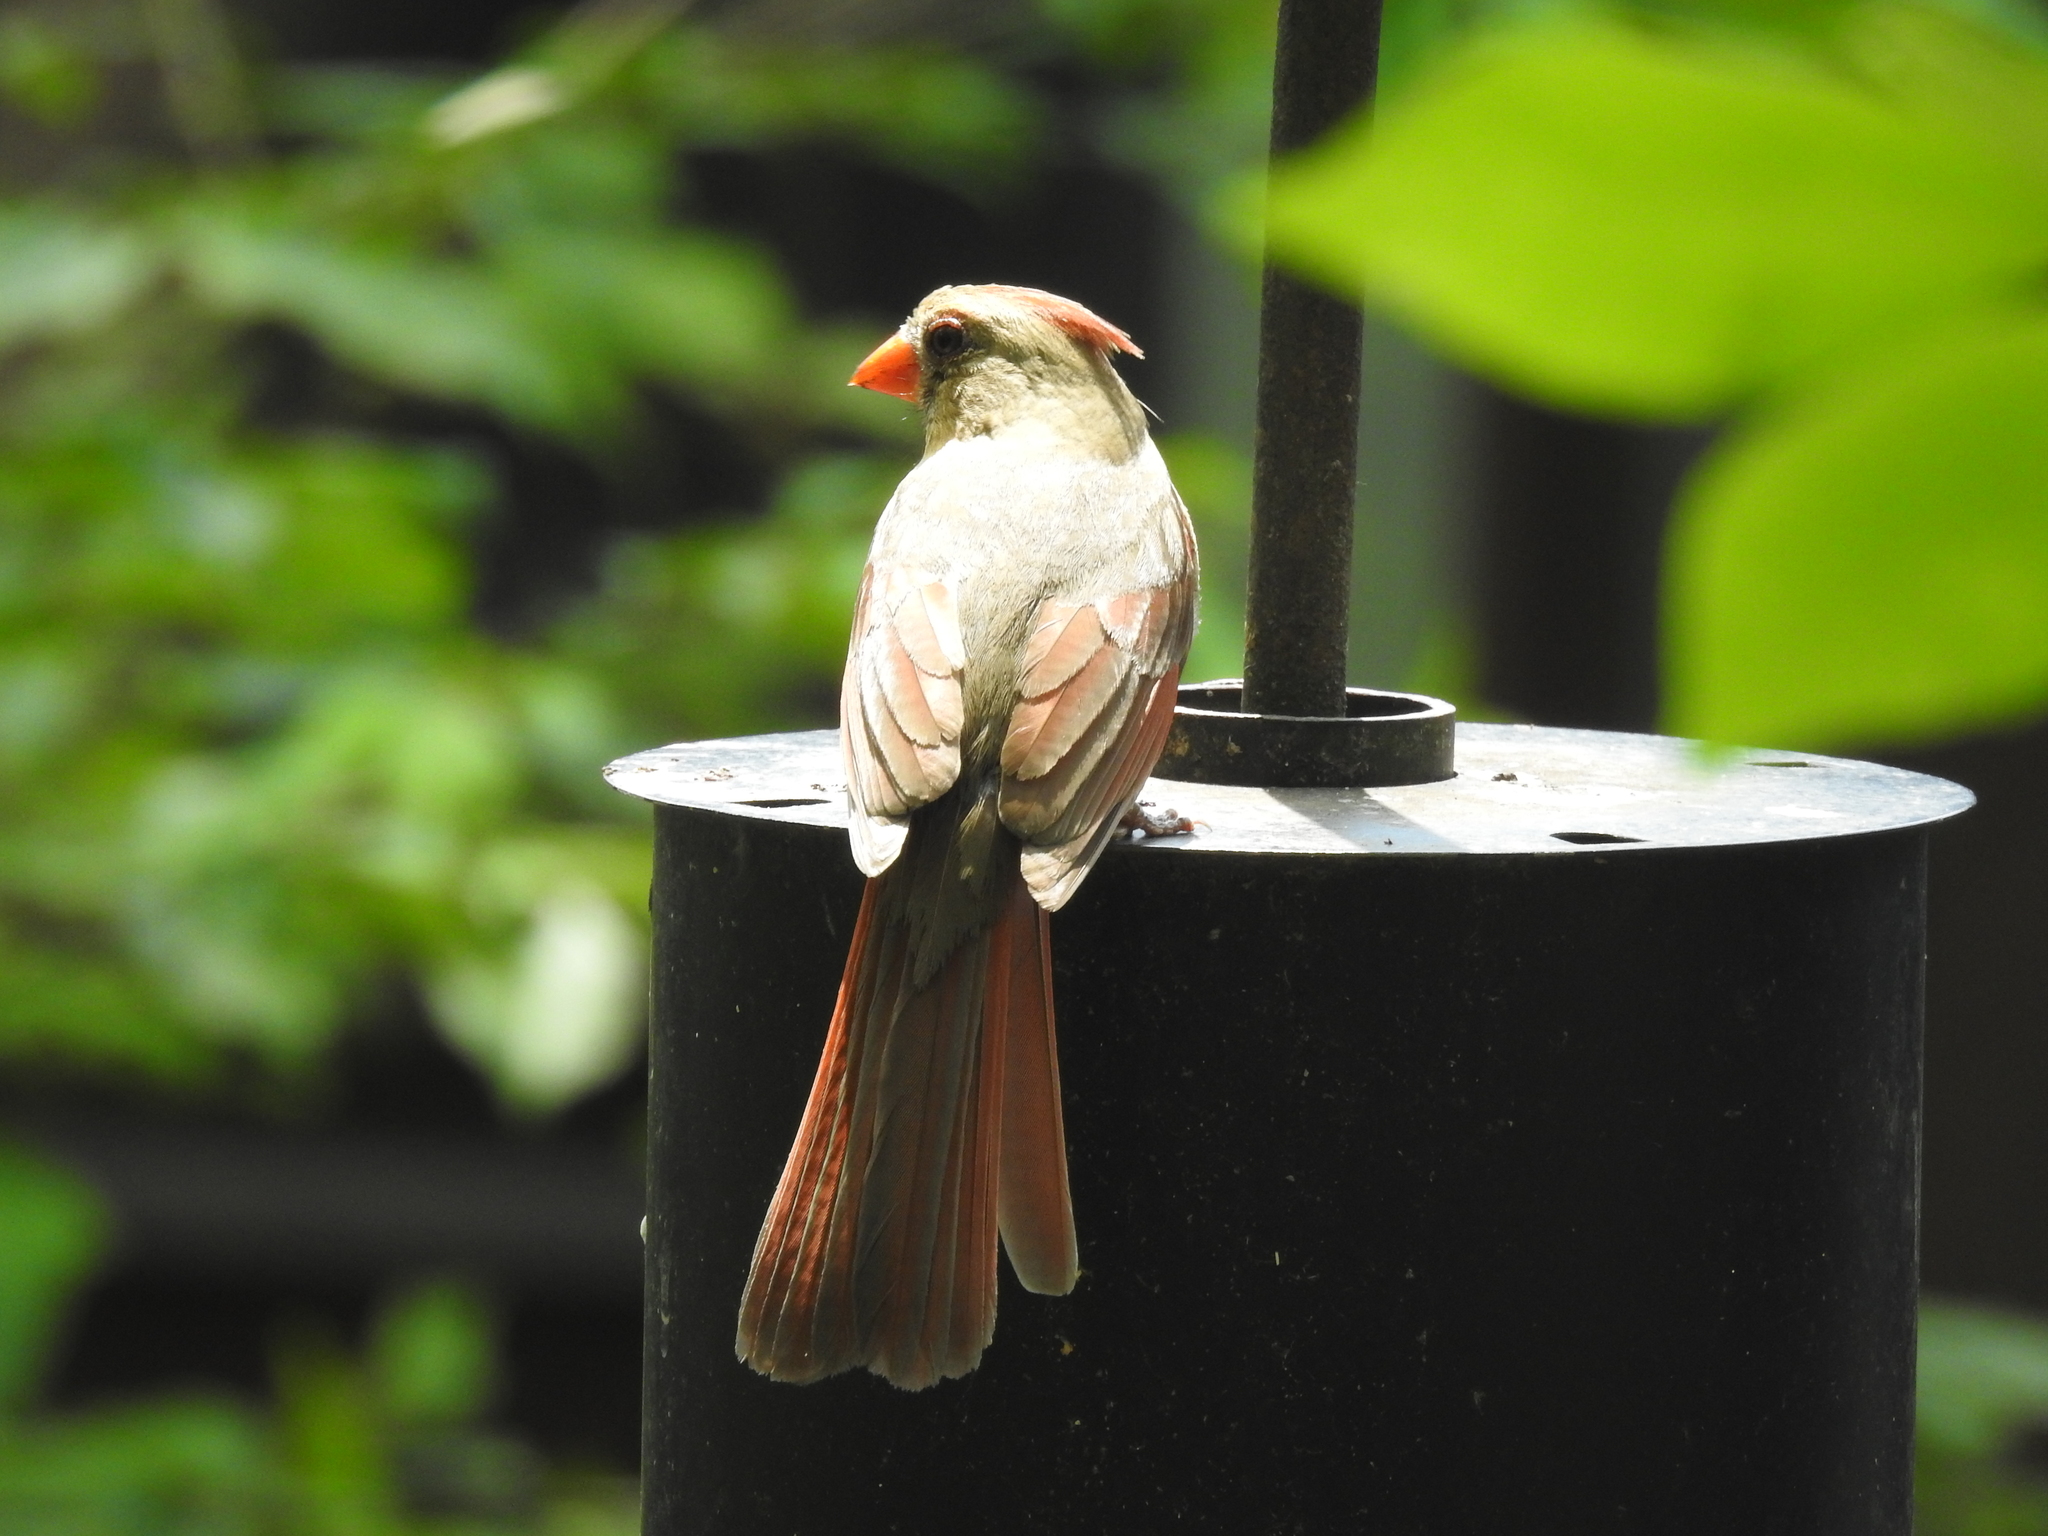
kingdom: Animalia
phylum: Chordata
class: Aves
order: Passeriformes
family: Cardinalidae
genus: Cardinalis
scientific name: Cardinalis cardinalis
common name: Northern cardinal
